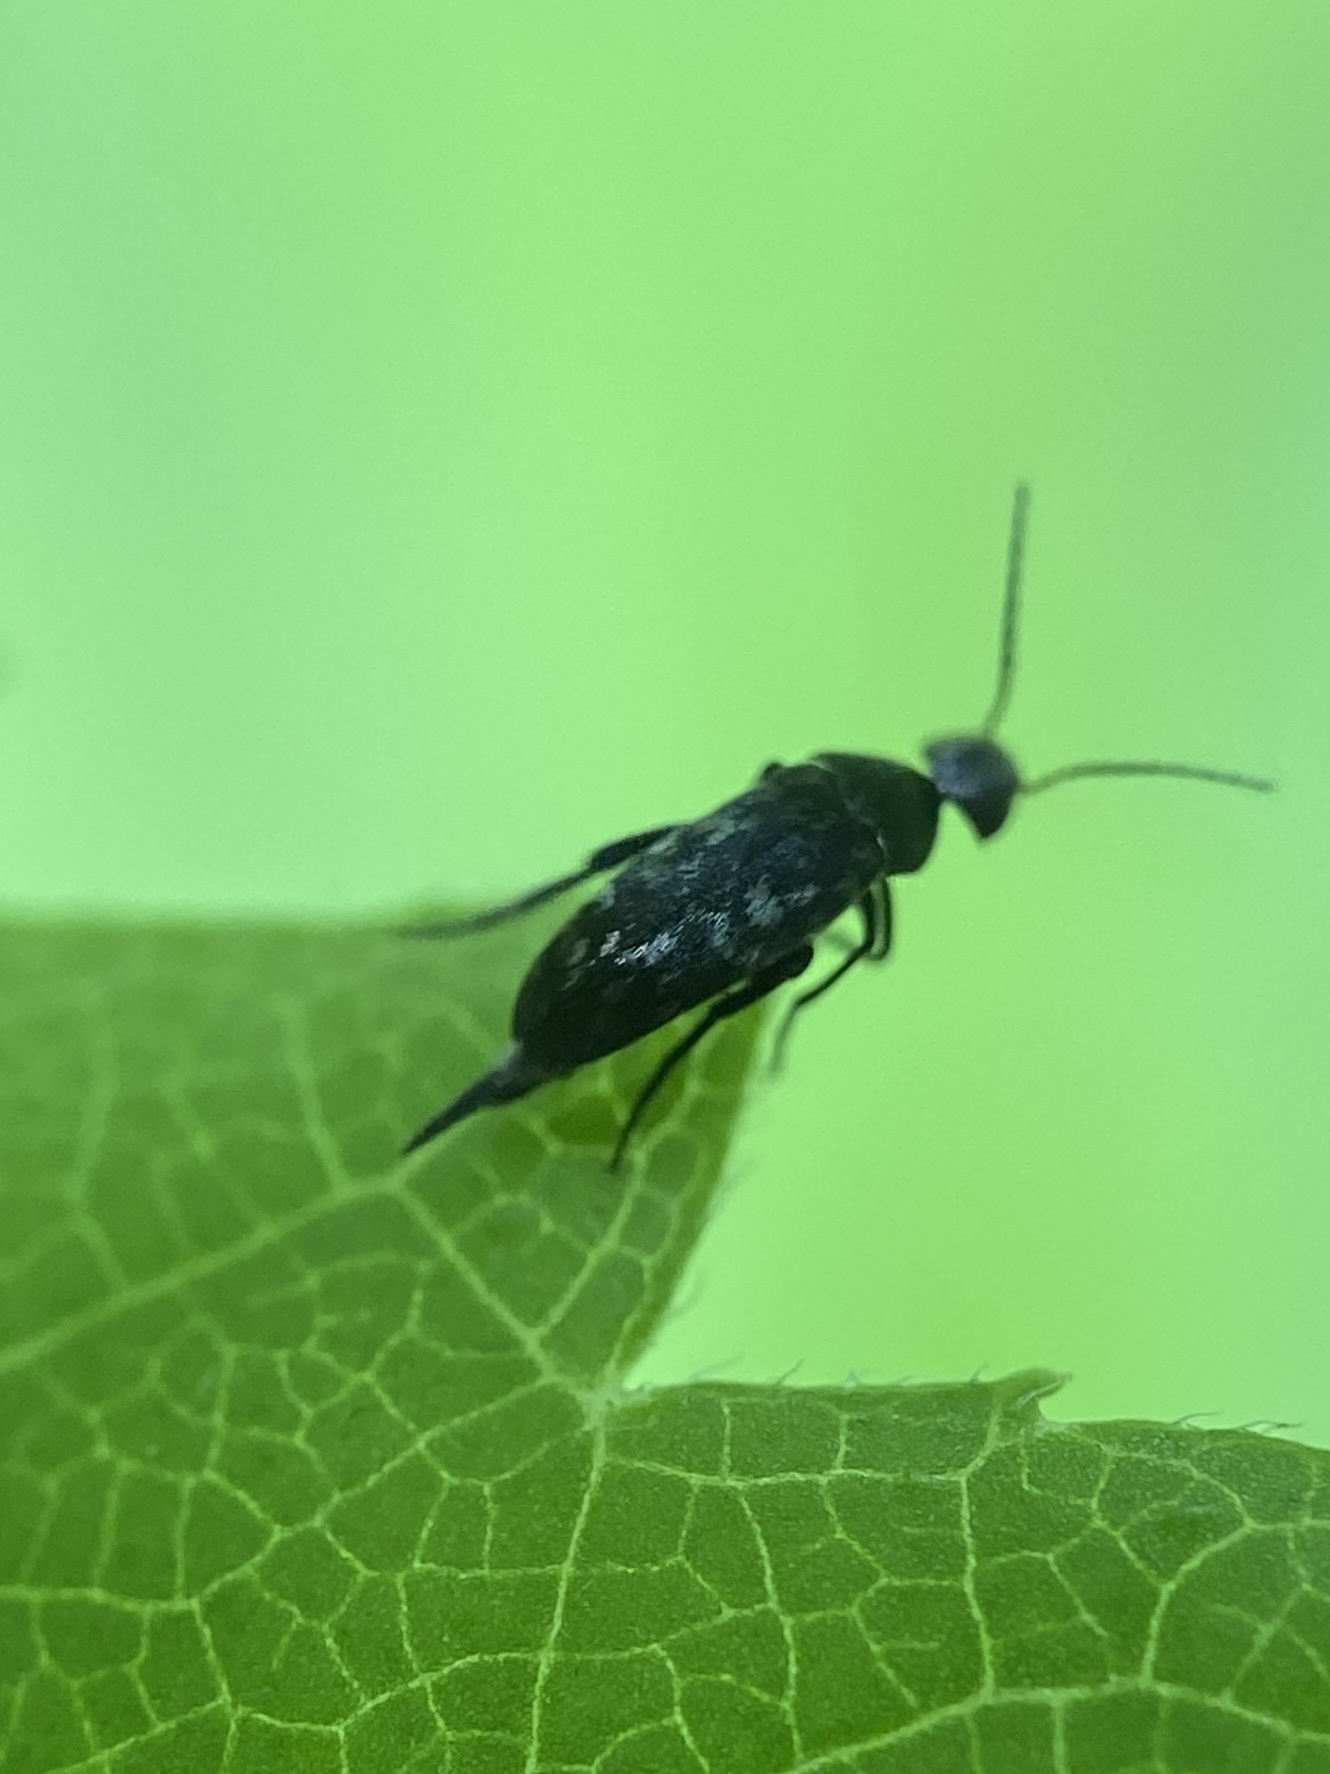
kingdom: Animalia
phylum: Arthropoda
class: Insecta
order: Coleoptera
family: Mordellidae
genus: Mordellina
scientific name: Mordellina pustulata
